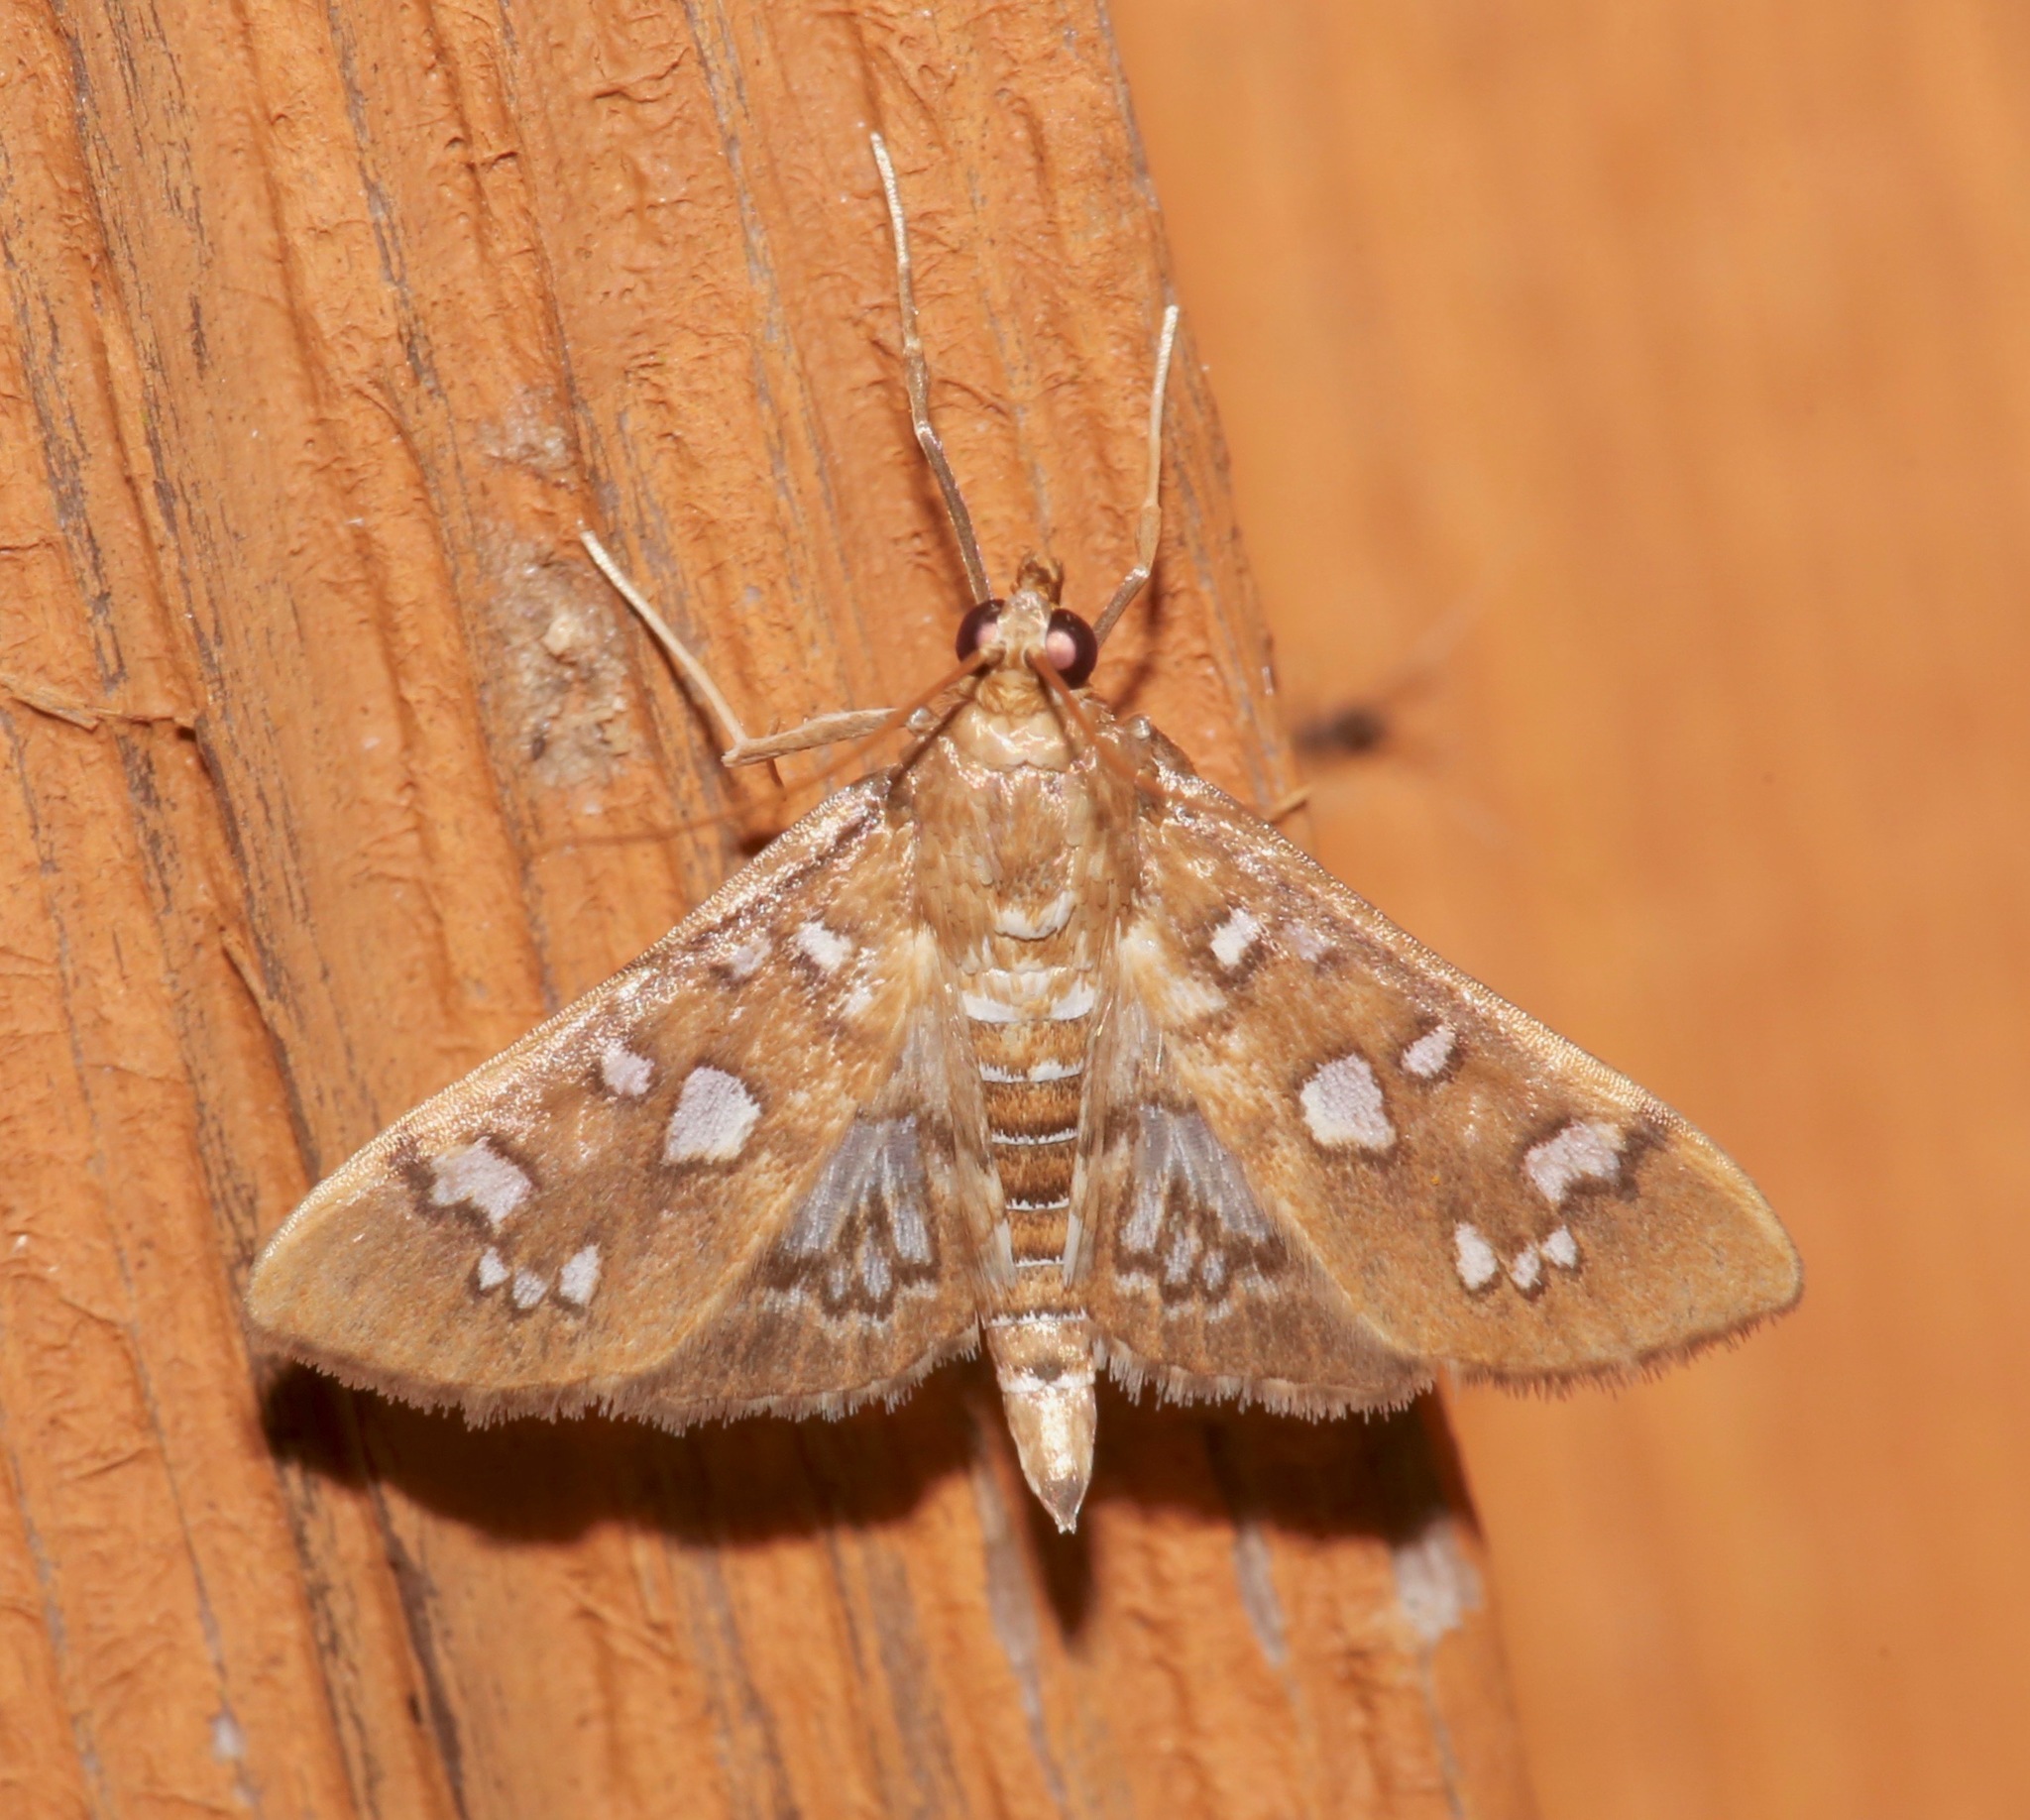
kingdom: Animalia
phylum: Arthropoda
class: Insecta
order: Lepidoptera
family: Crambidae
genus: Samea
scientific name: Samea baccatalis
